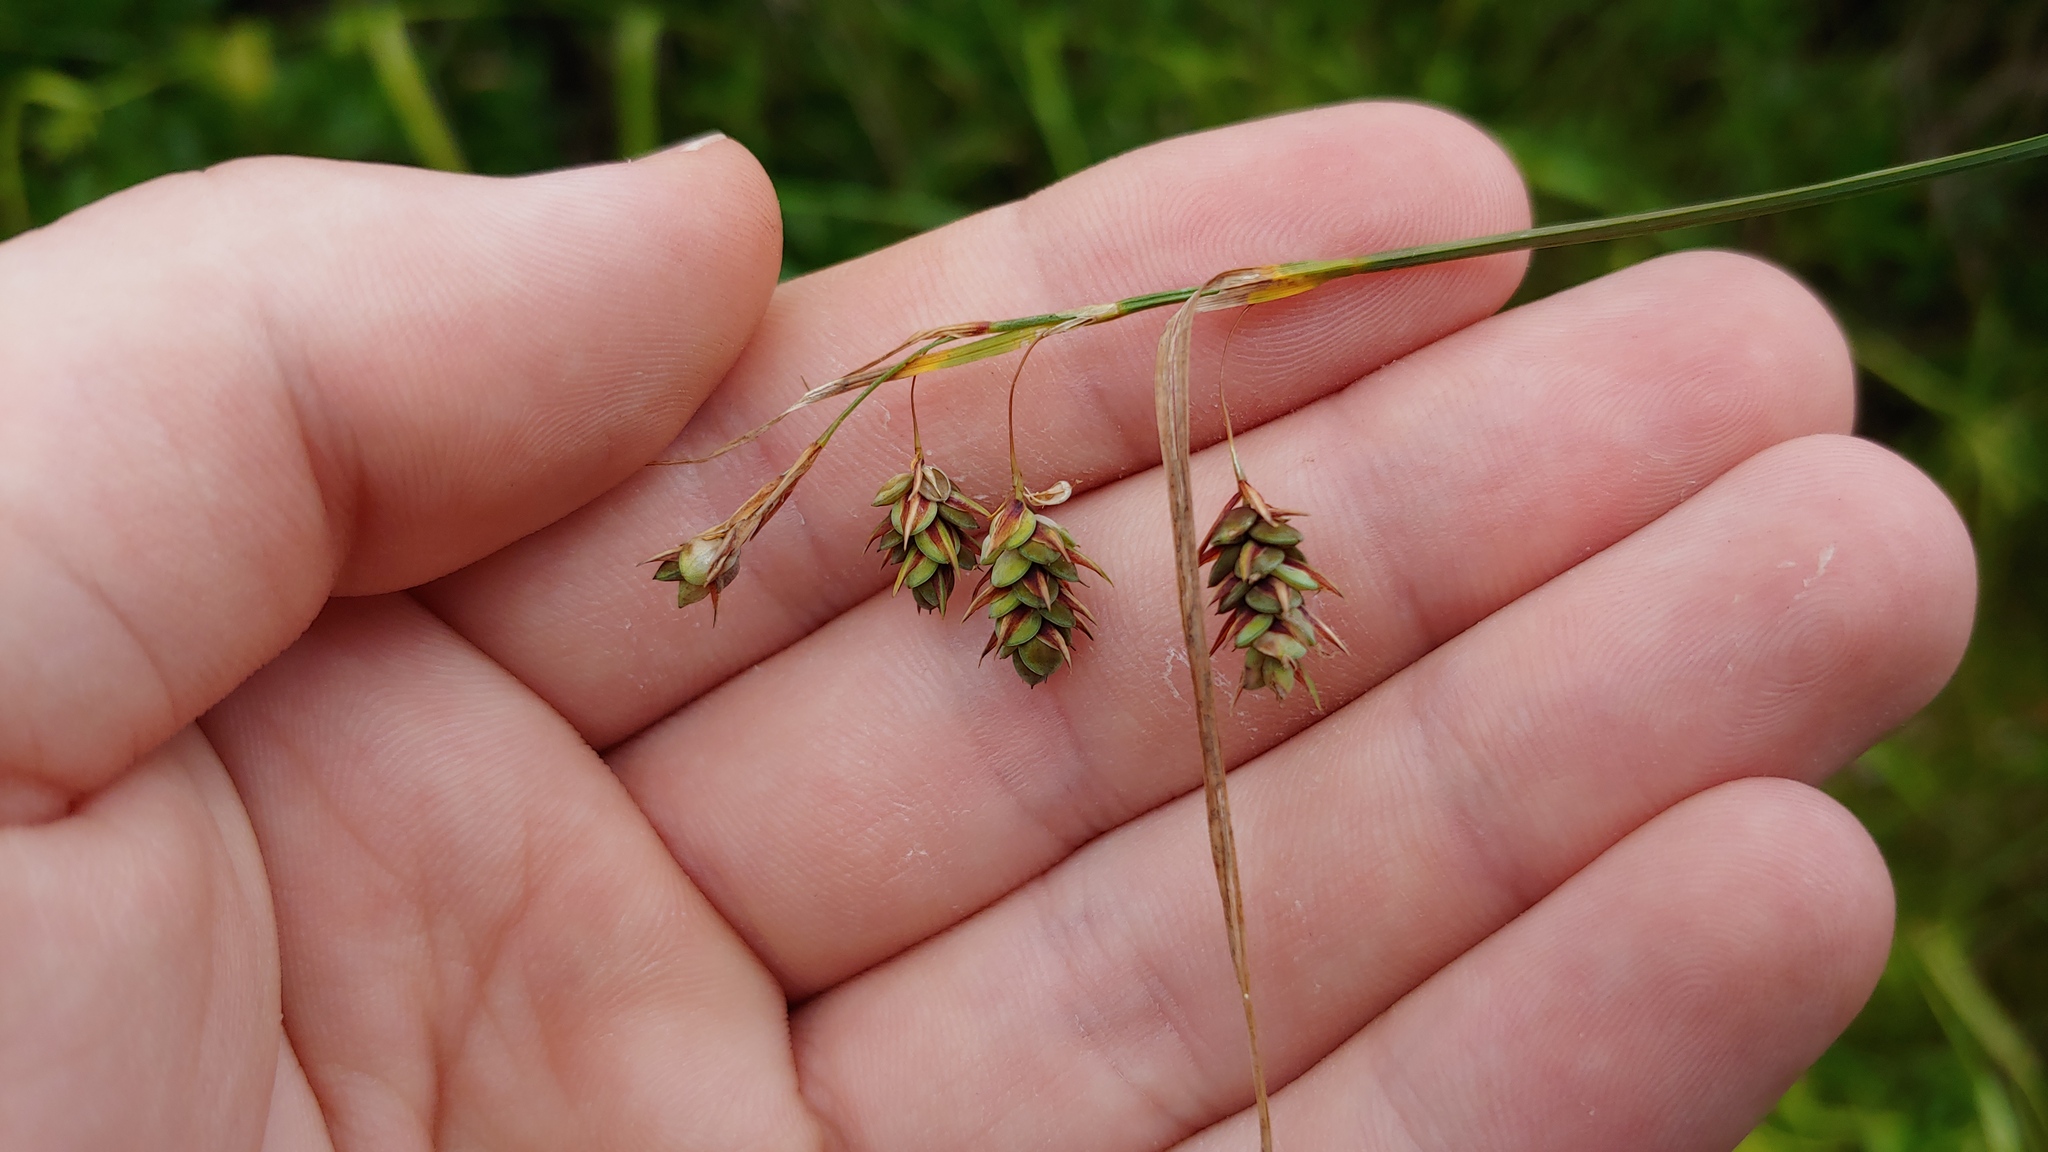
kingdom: Plantae
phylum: Tracheophyta
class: Liliopsida
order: Poales
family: Cyperaceae
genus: Carex
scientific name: Carex magellanica
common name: Bog sedge
